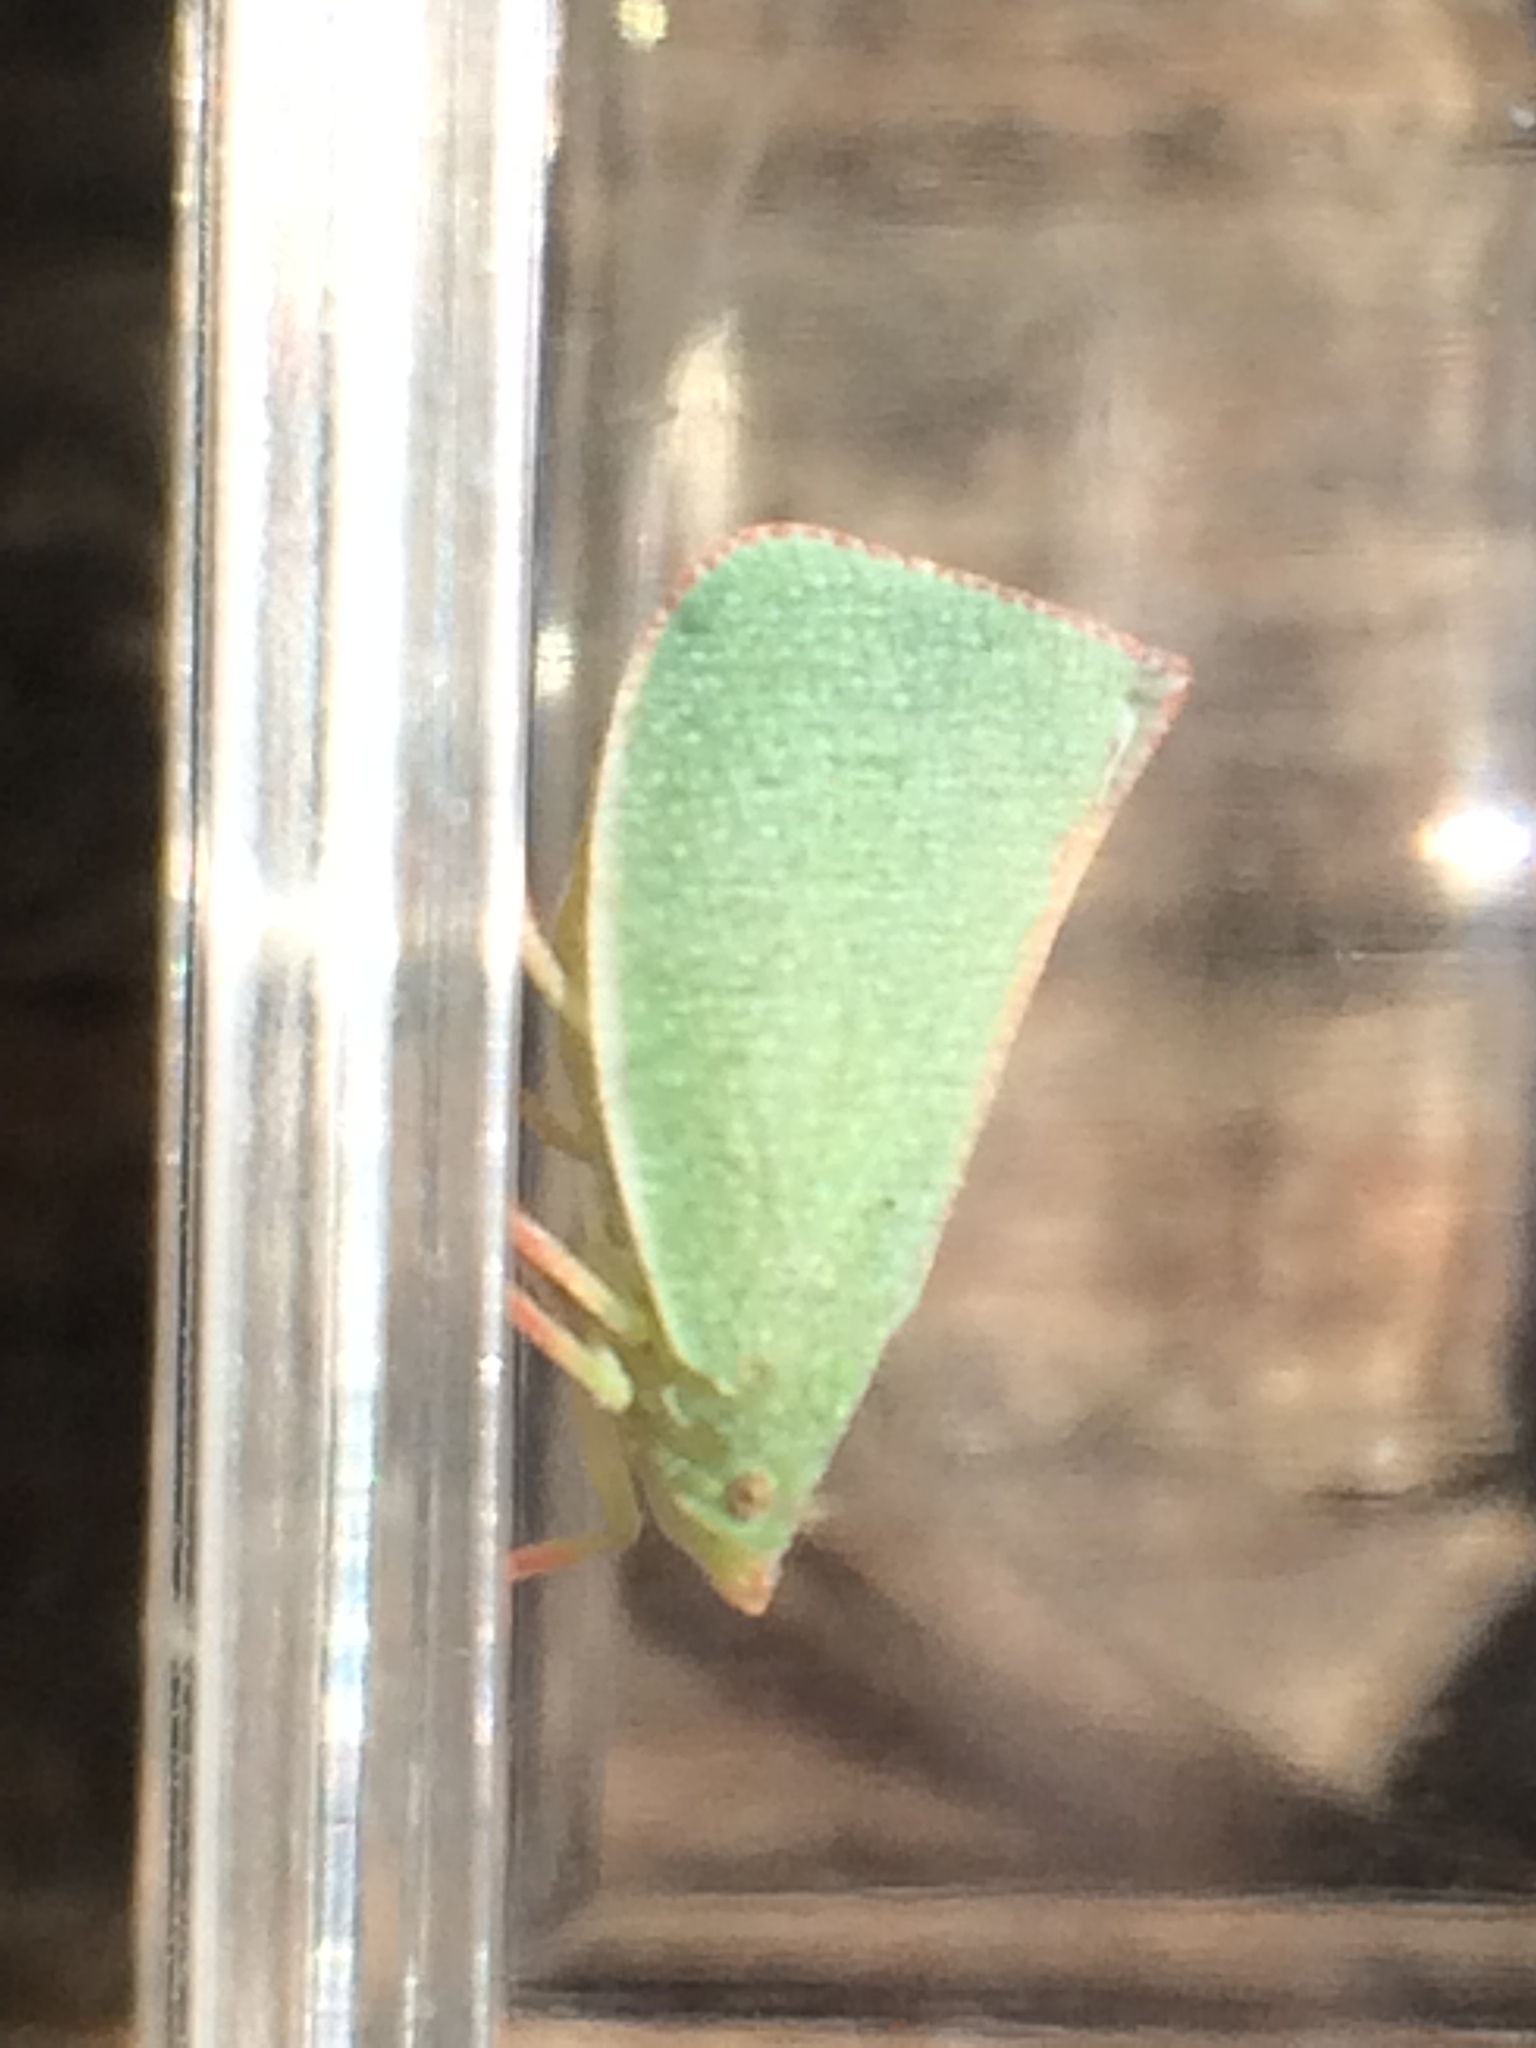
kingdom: Animalia
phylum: Arthropoda
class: Insecta
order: Hemiptera
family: Flatidae
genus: Siphanta
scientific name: Siphanta acuta
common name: Torpedo bug
